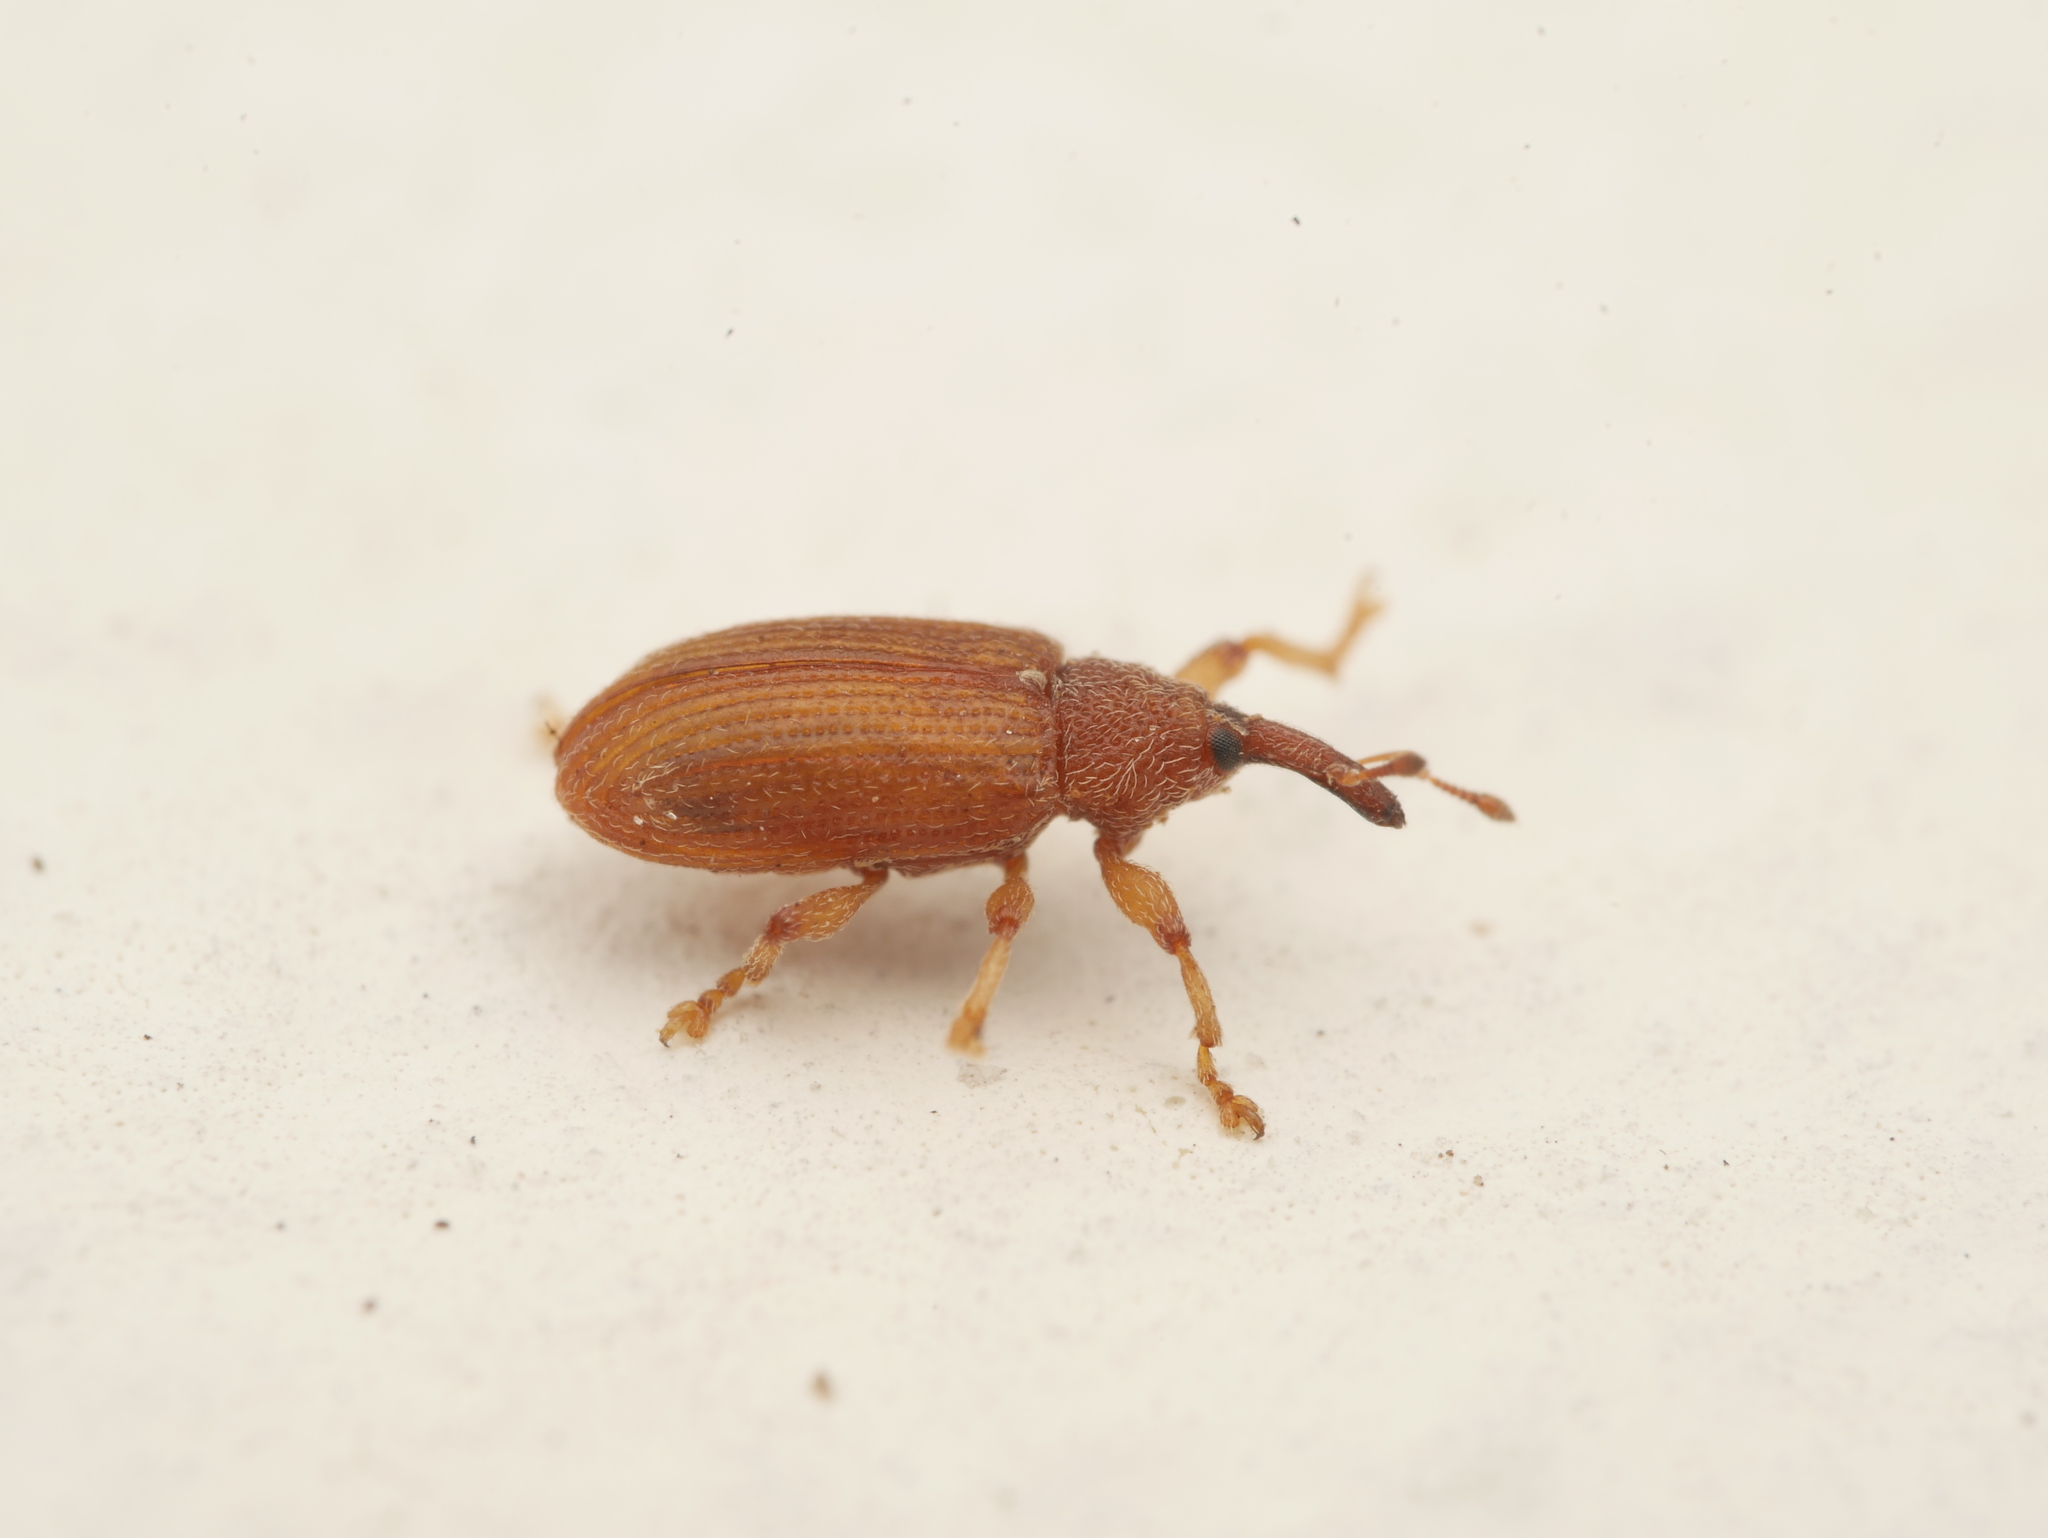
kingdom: Animalia
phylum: Arthropoda
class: Insecta
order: Coleoptera
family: Curculionidae
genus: Bradybatus
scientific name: Bradybatus kellneri
